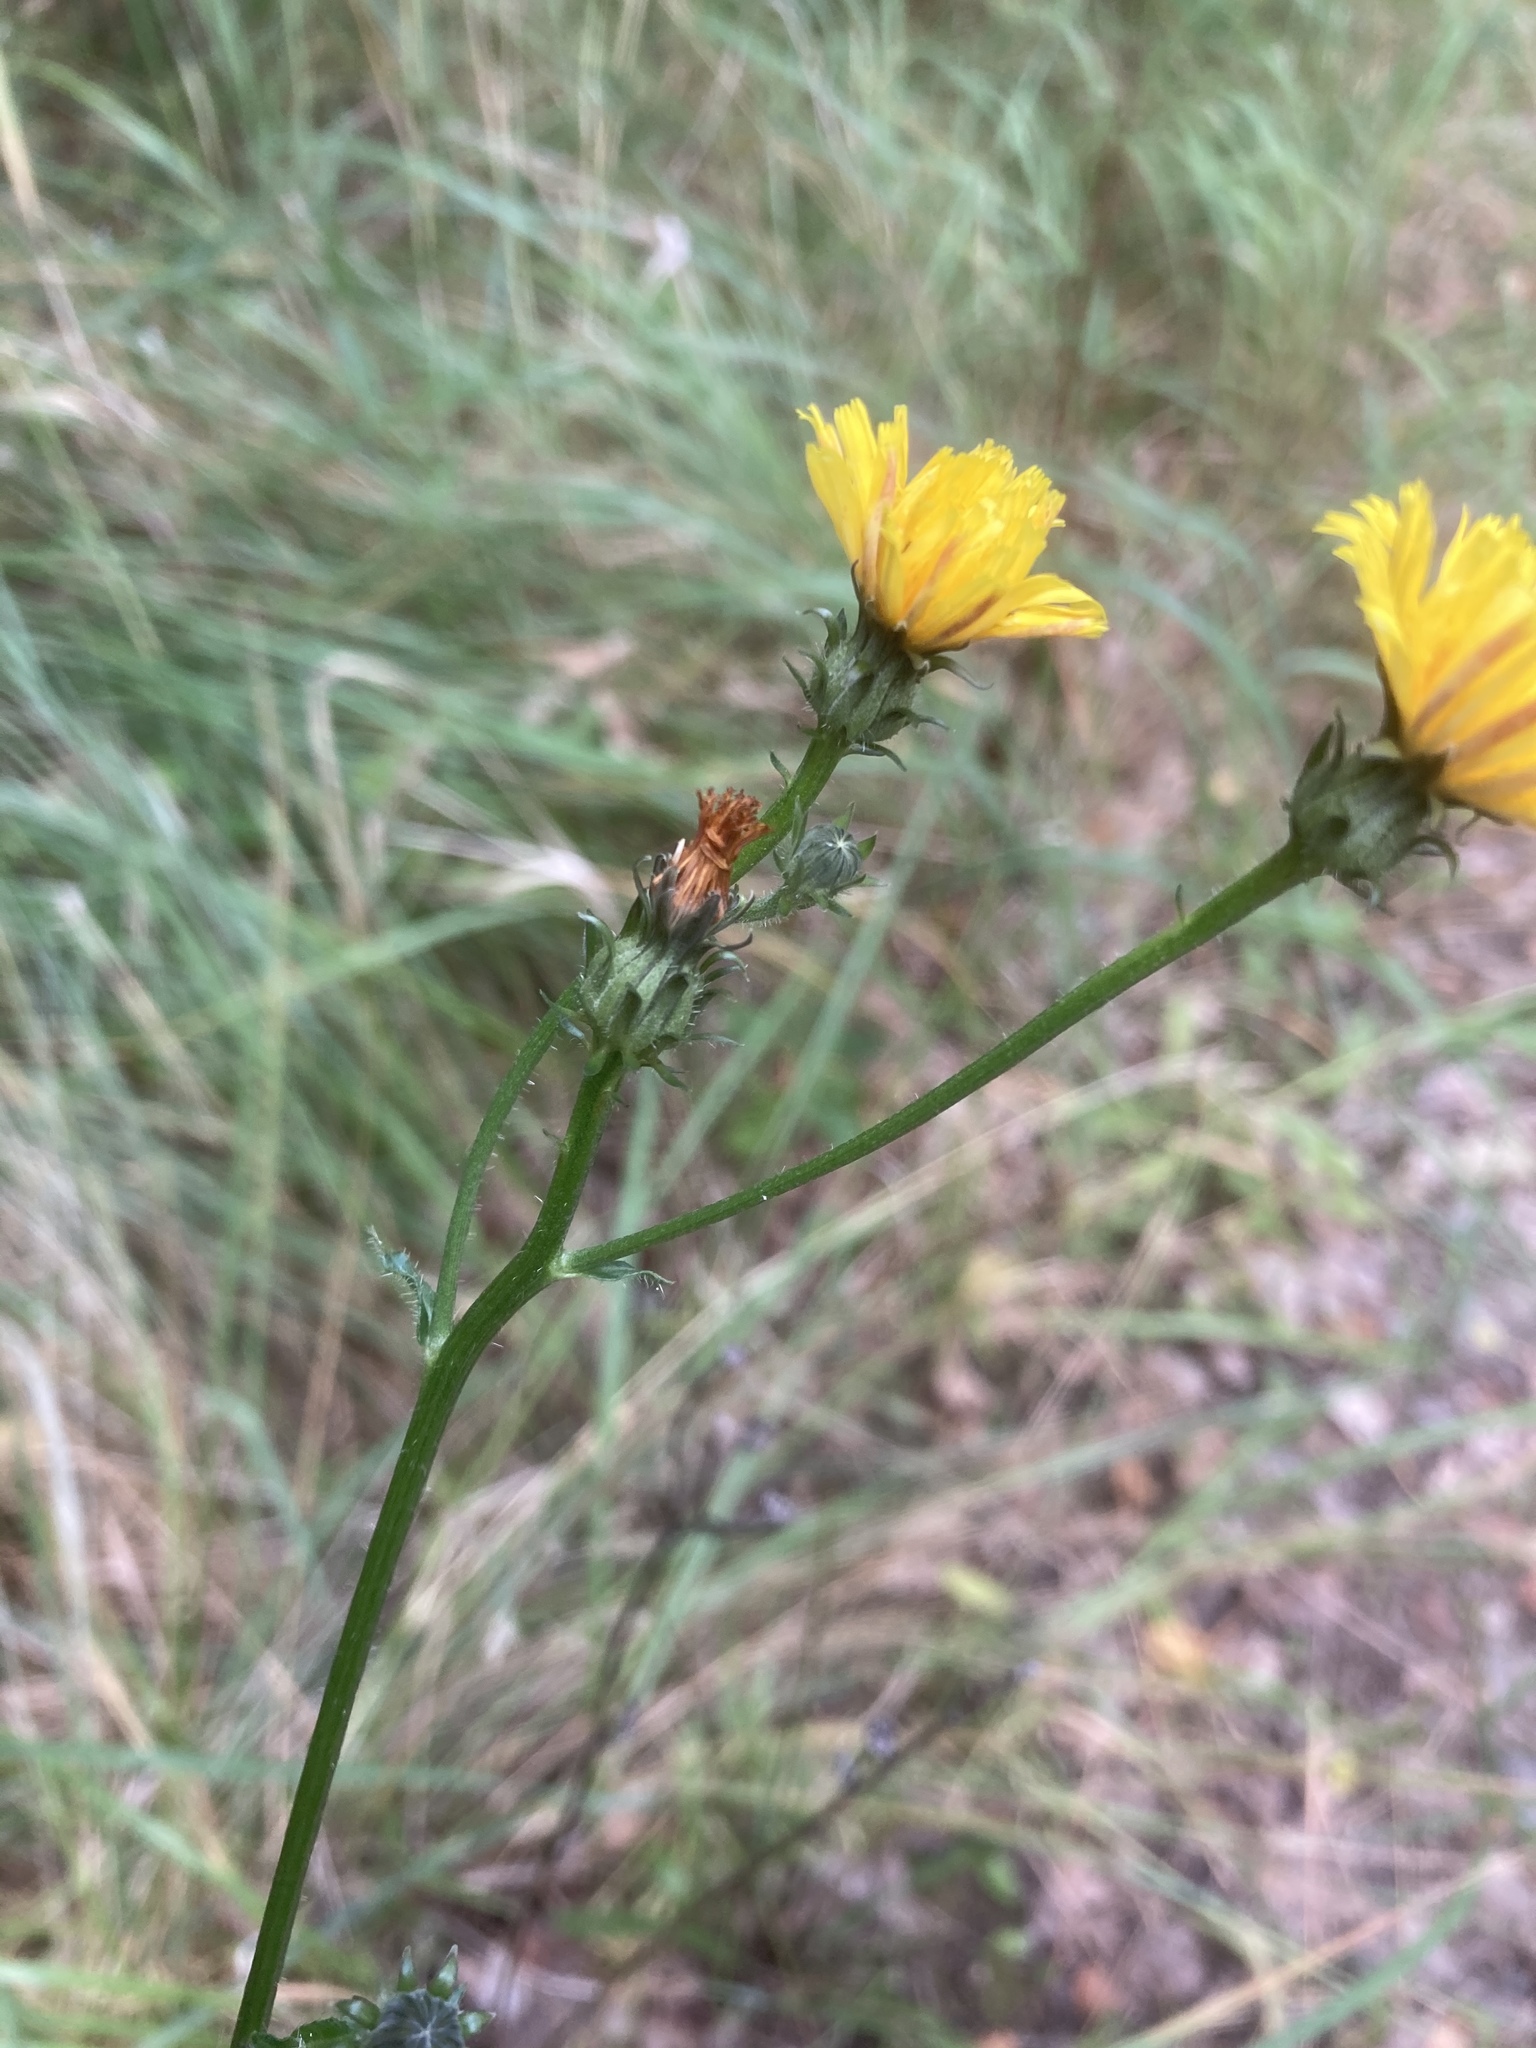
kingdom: Plantae
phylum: Tracheophyta
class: Magnoliopsida
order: Asterales
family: Asteraceae
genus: Picris
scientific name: Picris hieracioides
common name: Hawkweed oxtongue
